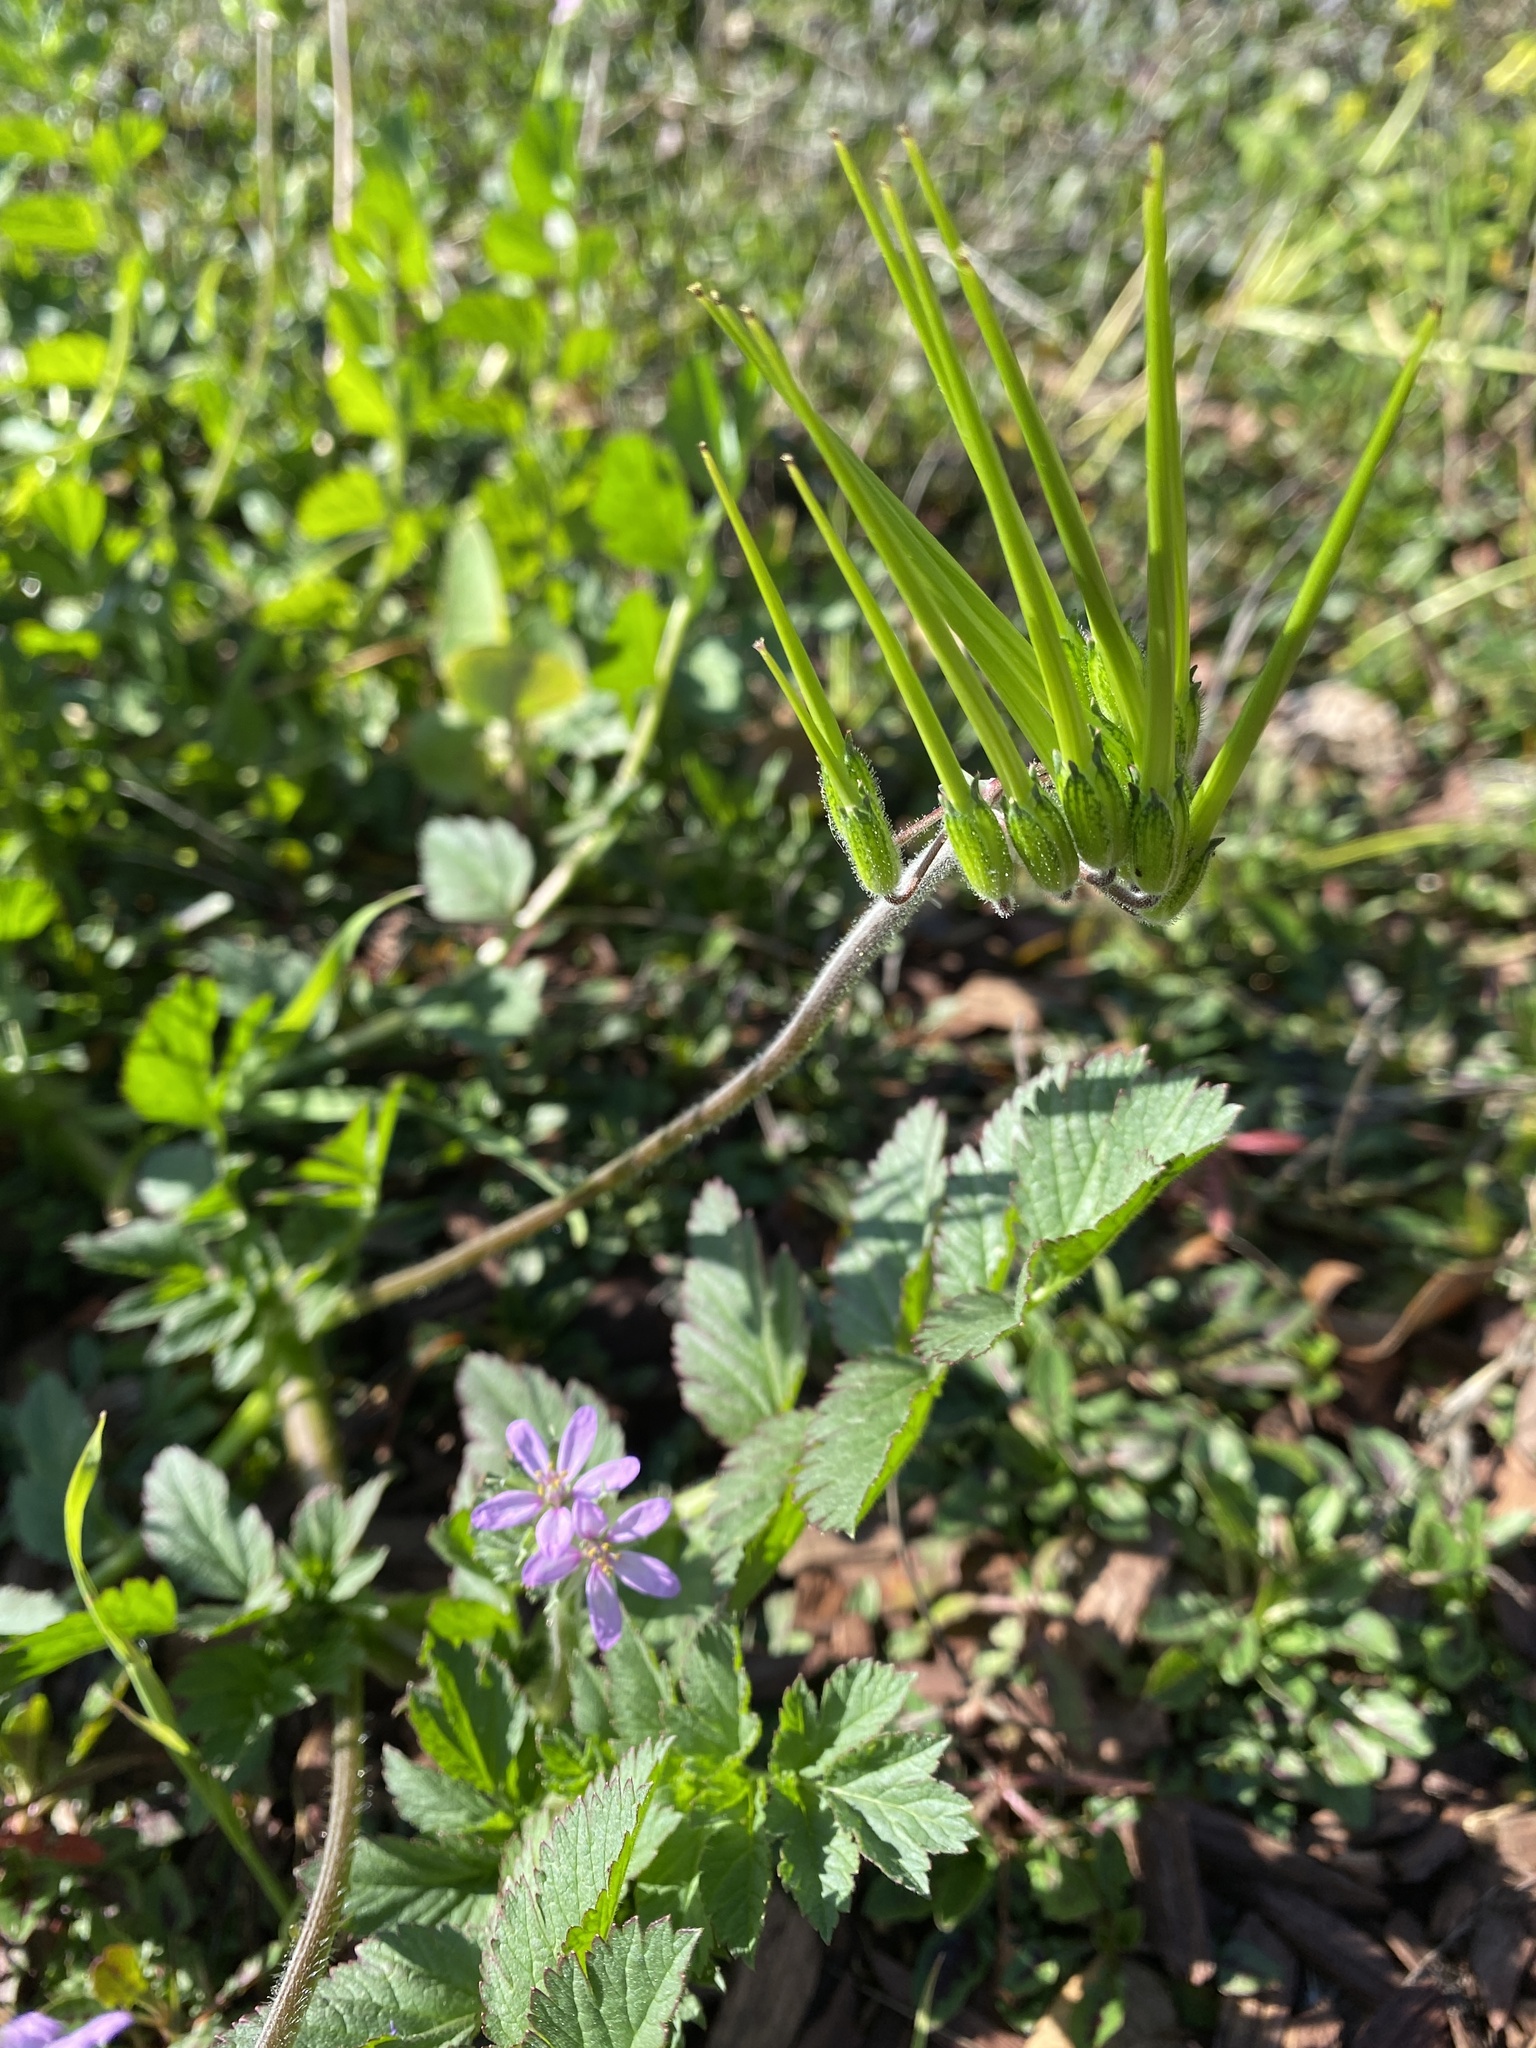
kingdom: Plantae
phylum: Tracheophyta
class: Magnoliopsida
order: Geraniales
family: Geraniaceae
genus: Erodium
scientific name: Erodium moschatum
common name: Musk stork's-bill
